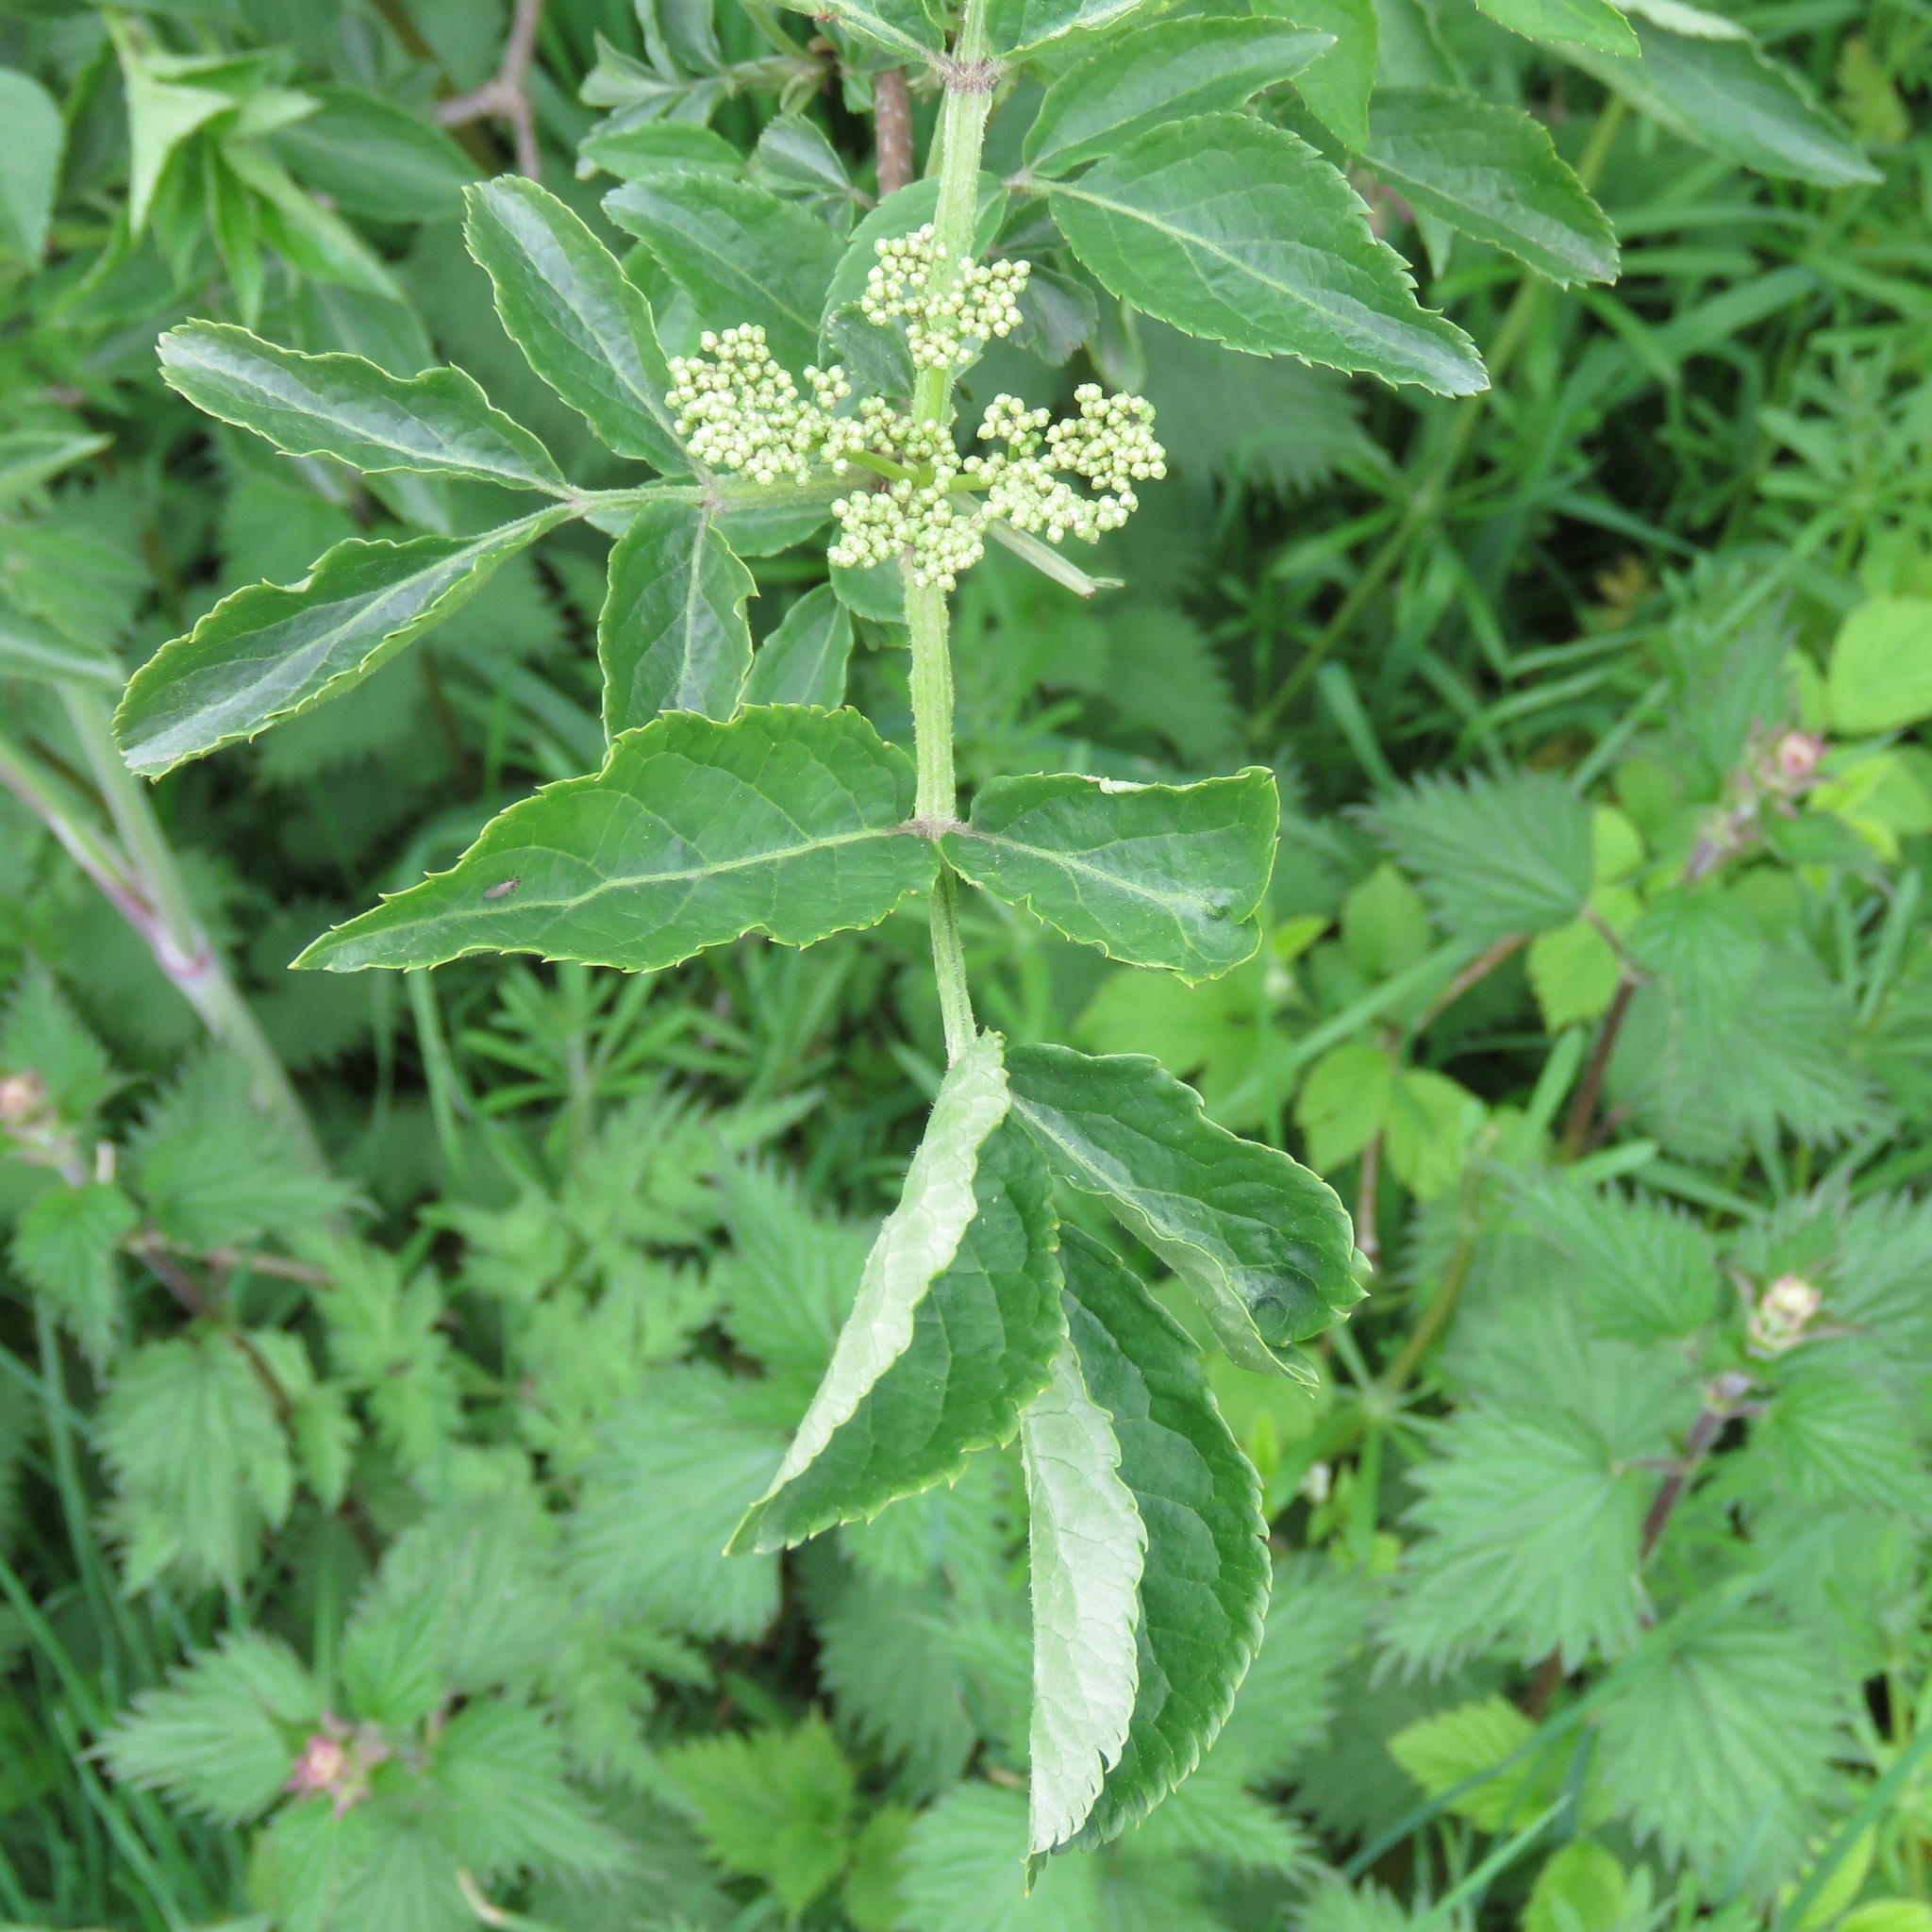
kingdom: Plantae
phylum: Tracheophyta
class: Magnoliopsida
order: Dipsacales
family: Viburnaceae
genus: Sambucus
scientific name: Sambucus nigra
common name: Elder
